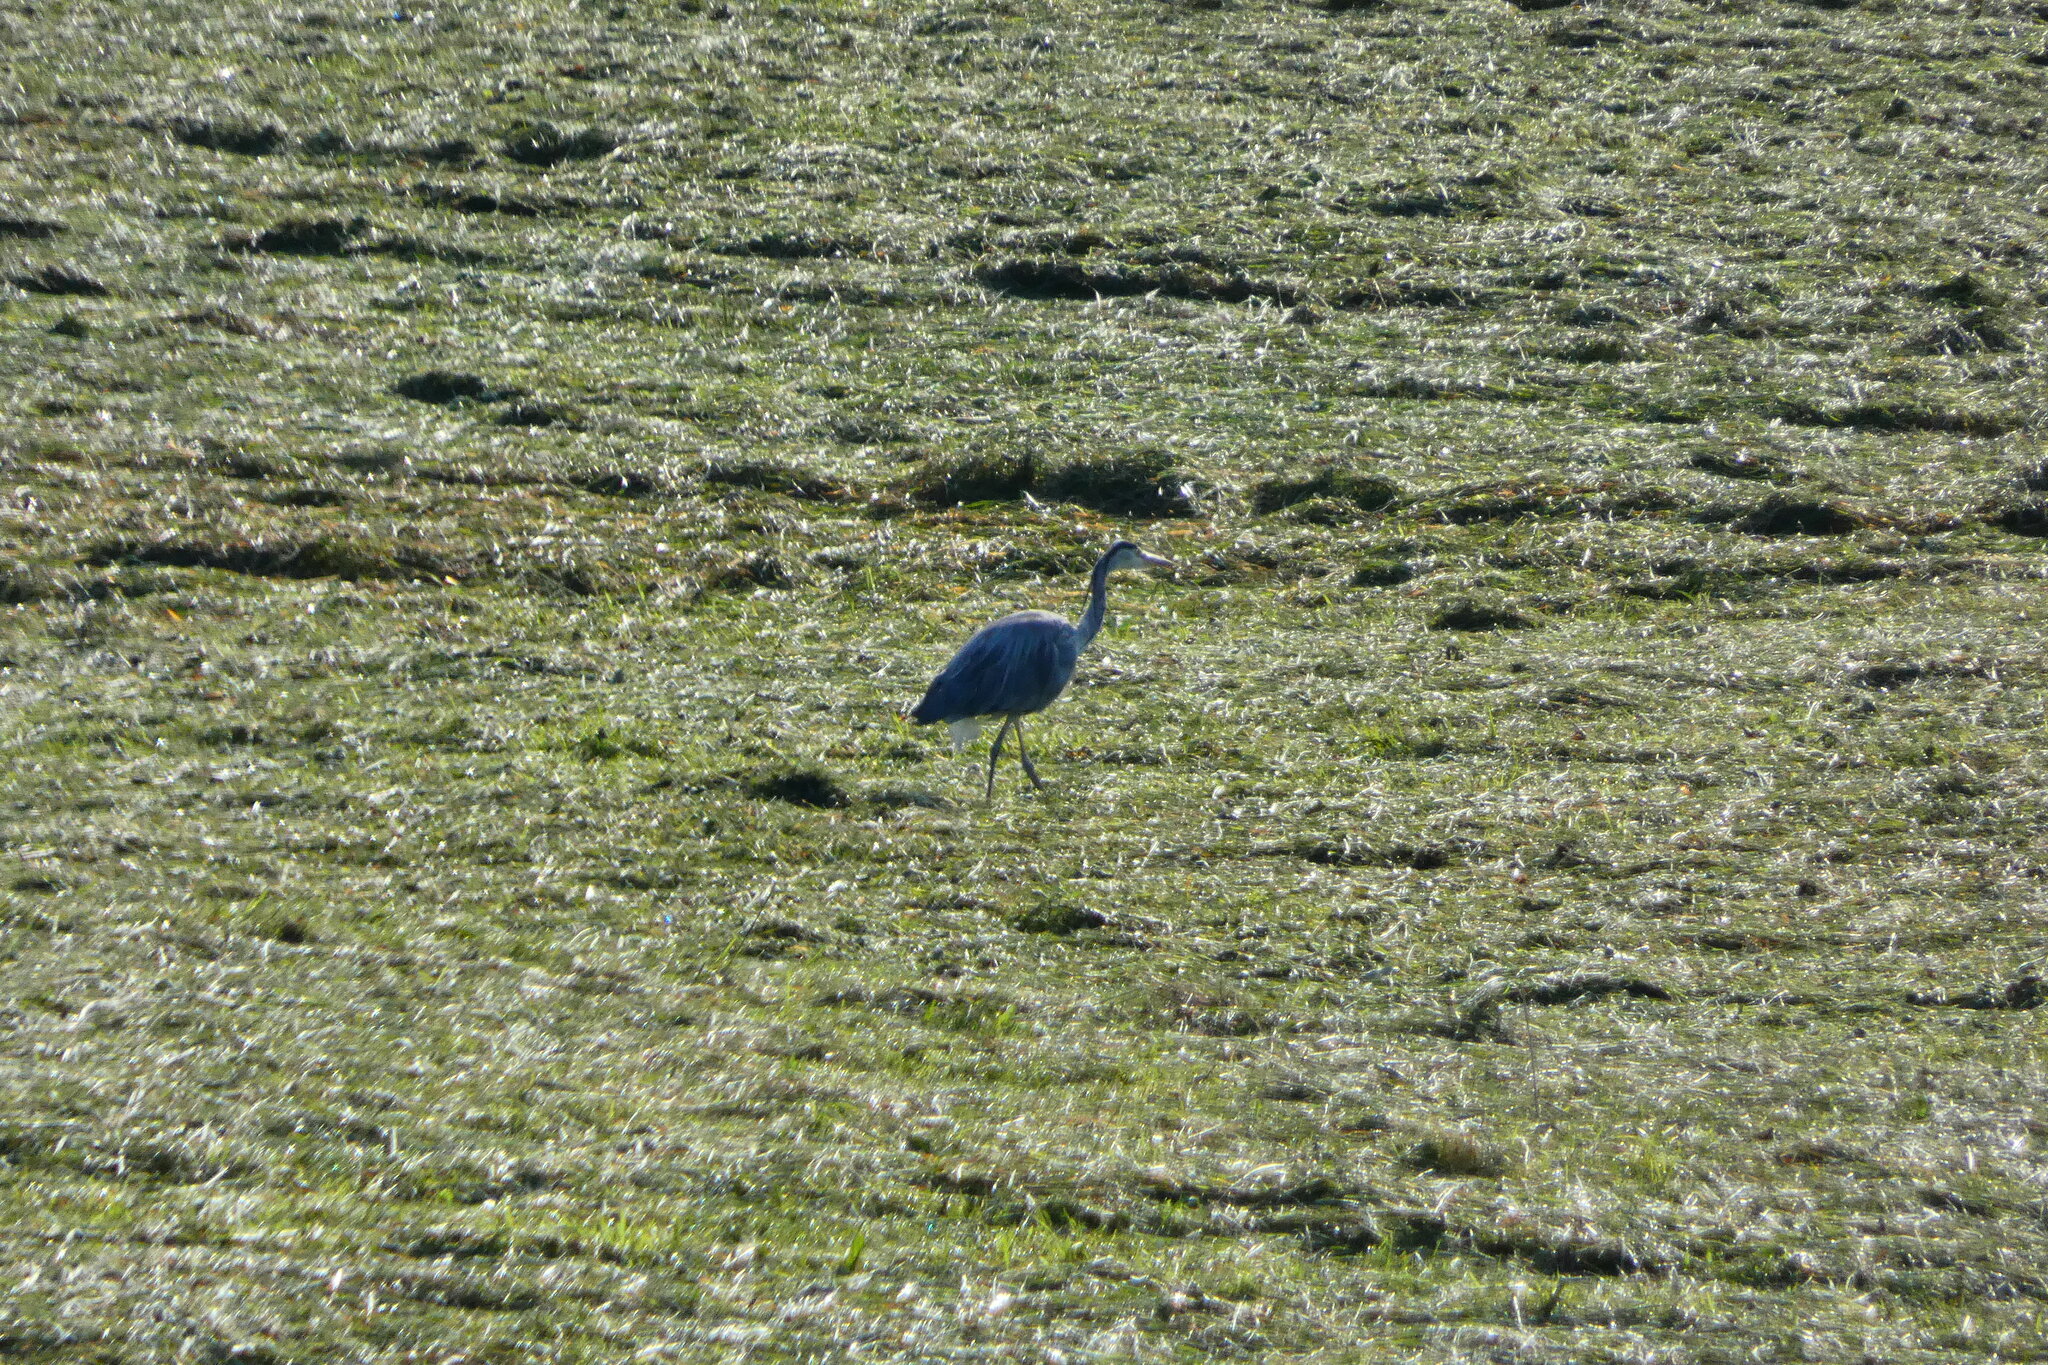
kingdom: Animalia
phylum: Chordata
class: Aves
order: Pelecaniformes
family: Ardeidae
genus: Ardea
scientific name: Ardea cinerea
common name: Grey heron
